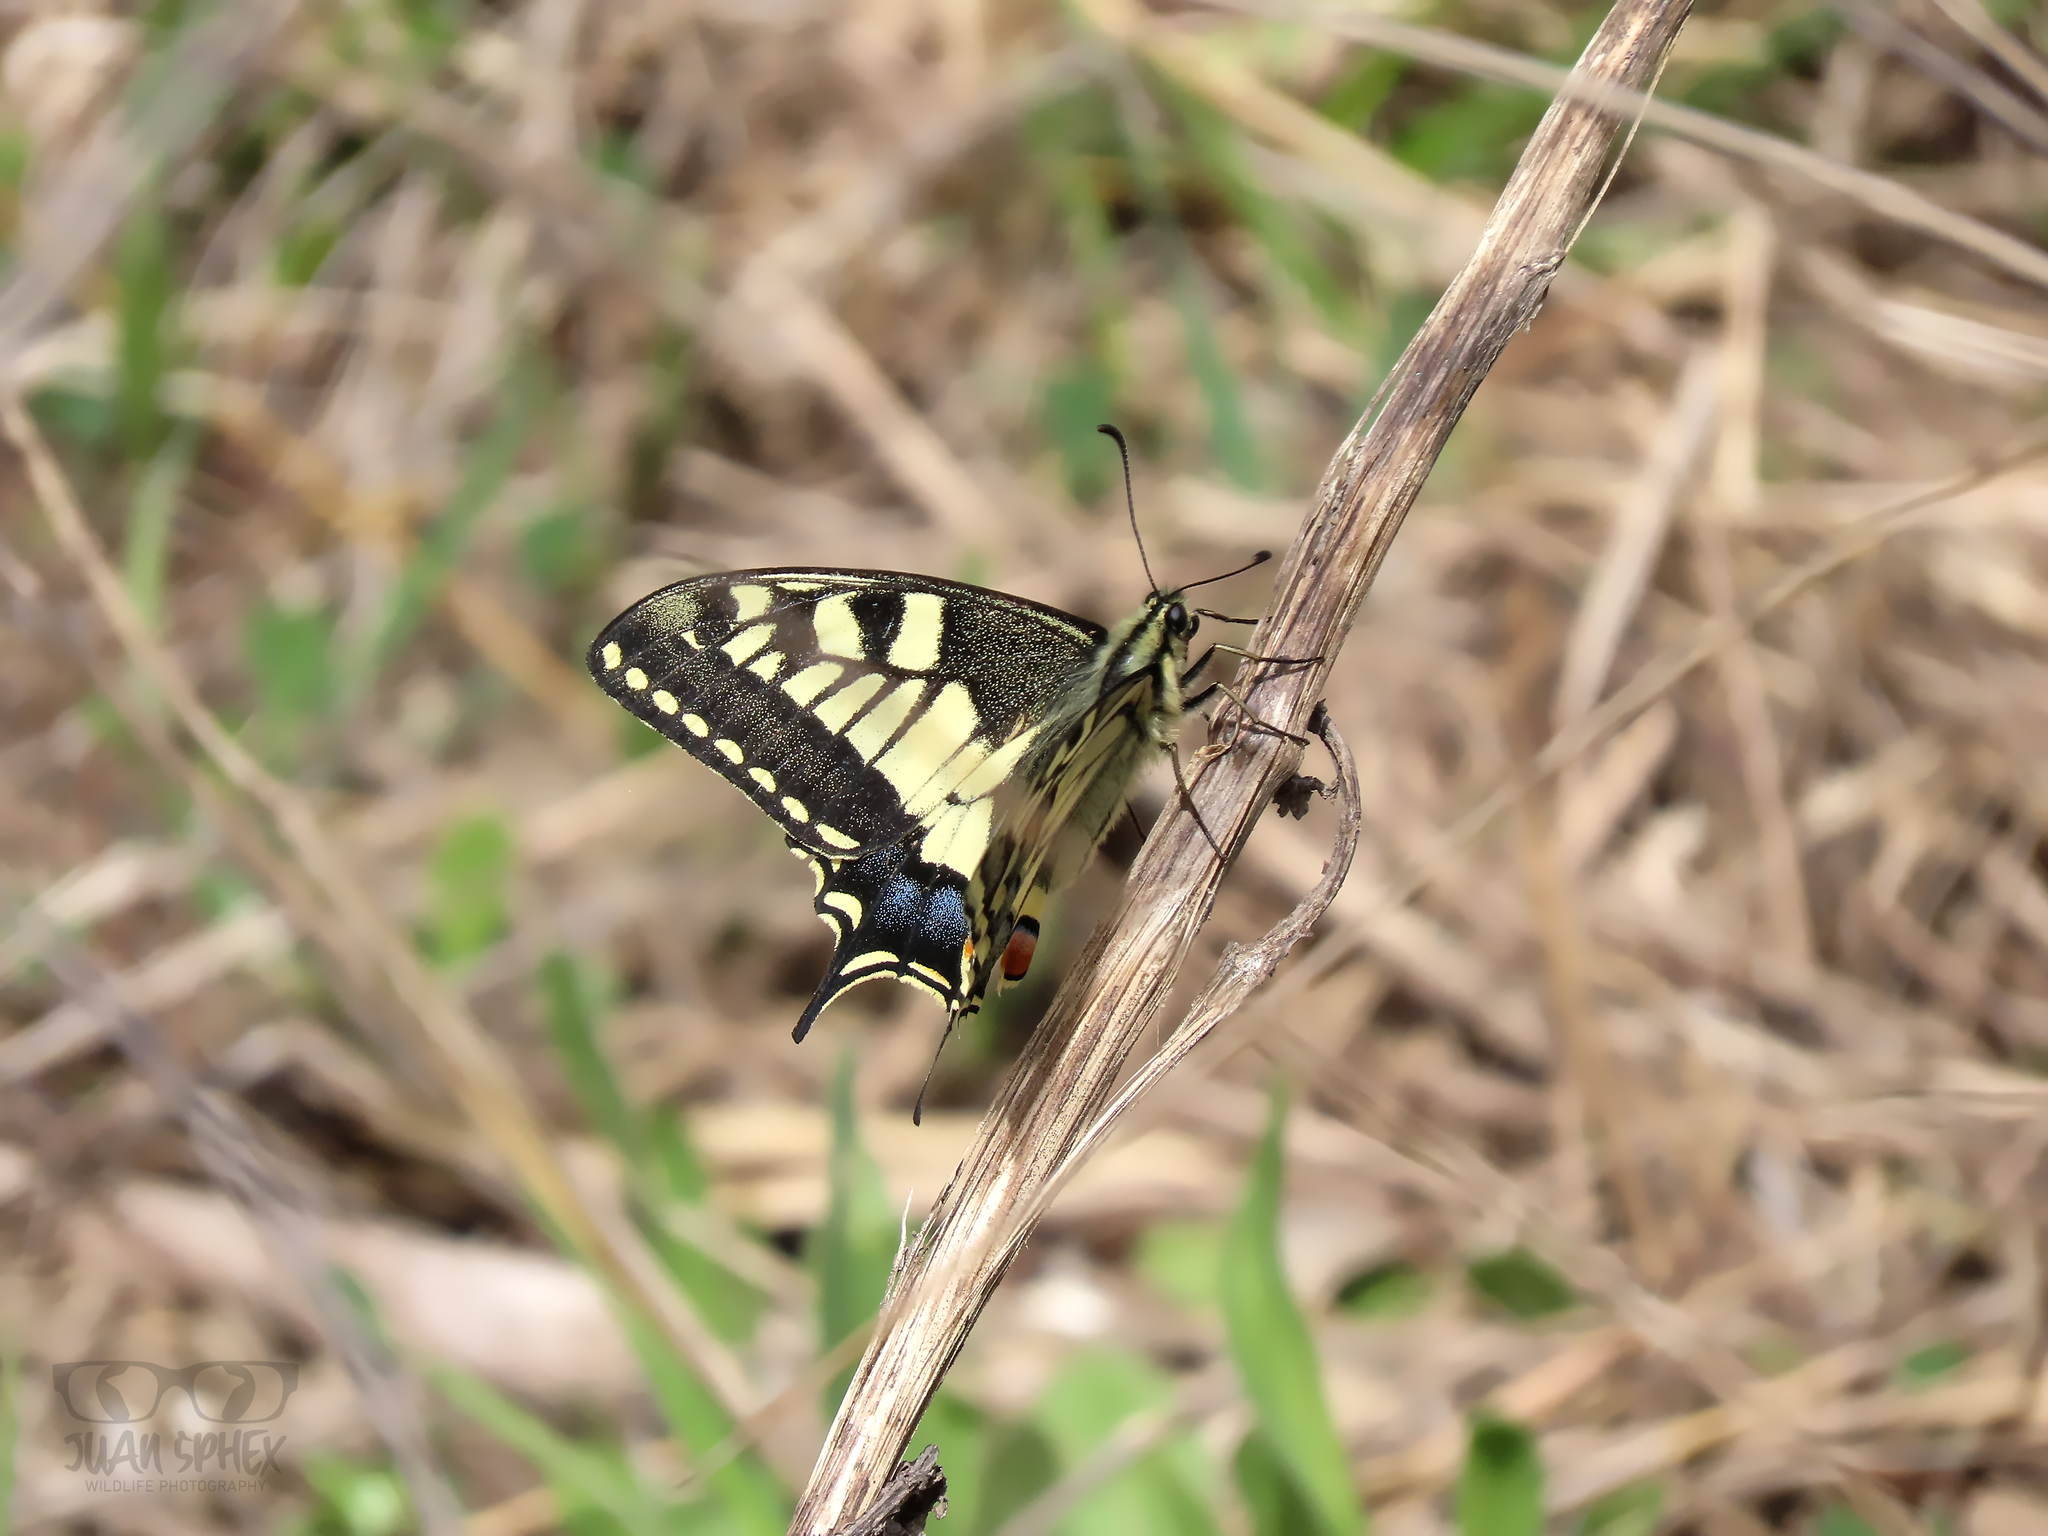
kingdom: Animalia
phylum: Arthropoda
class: Insecta
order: Lepidoptera
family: Papilionidae
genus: Papilio
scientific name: Papilio machaon
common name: Swallowtail
